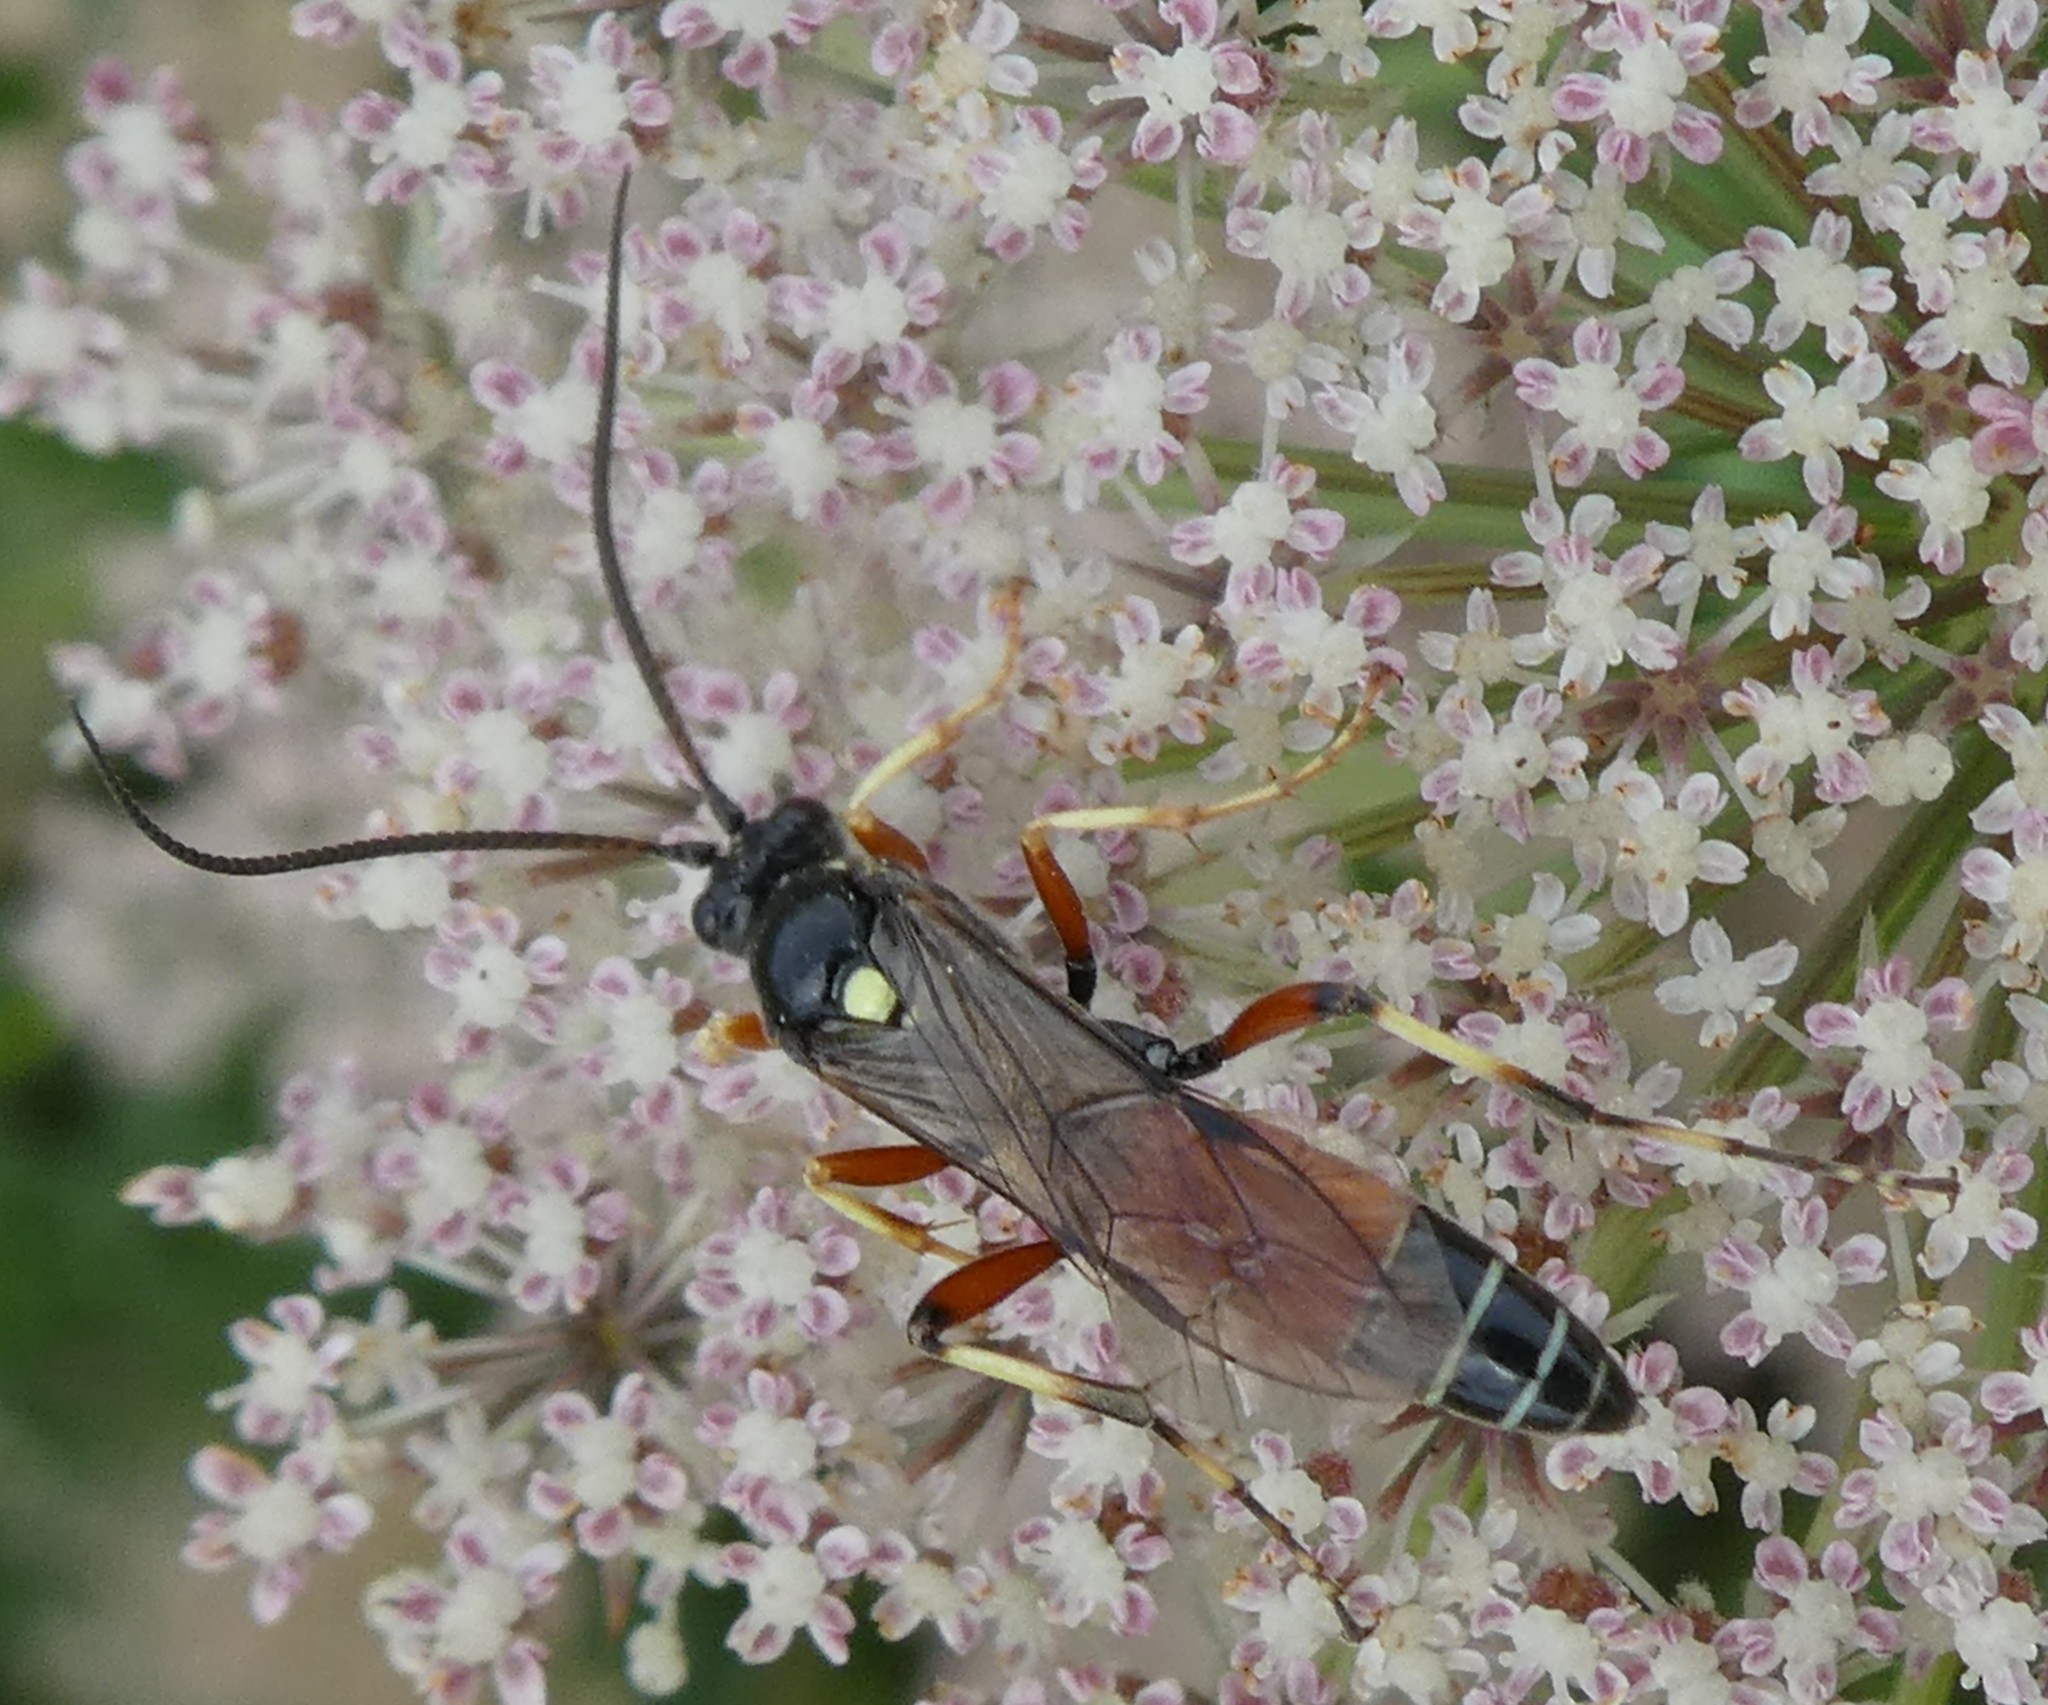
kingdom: Animalia
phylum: Arthropoda
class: Insecta
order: Hymenoptera
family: Ichneumonidae
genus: Ctenichneumon
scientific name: Ctenichneumon panzeri
